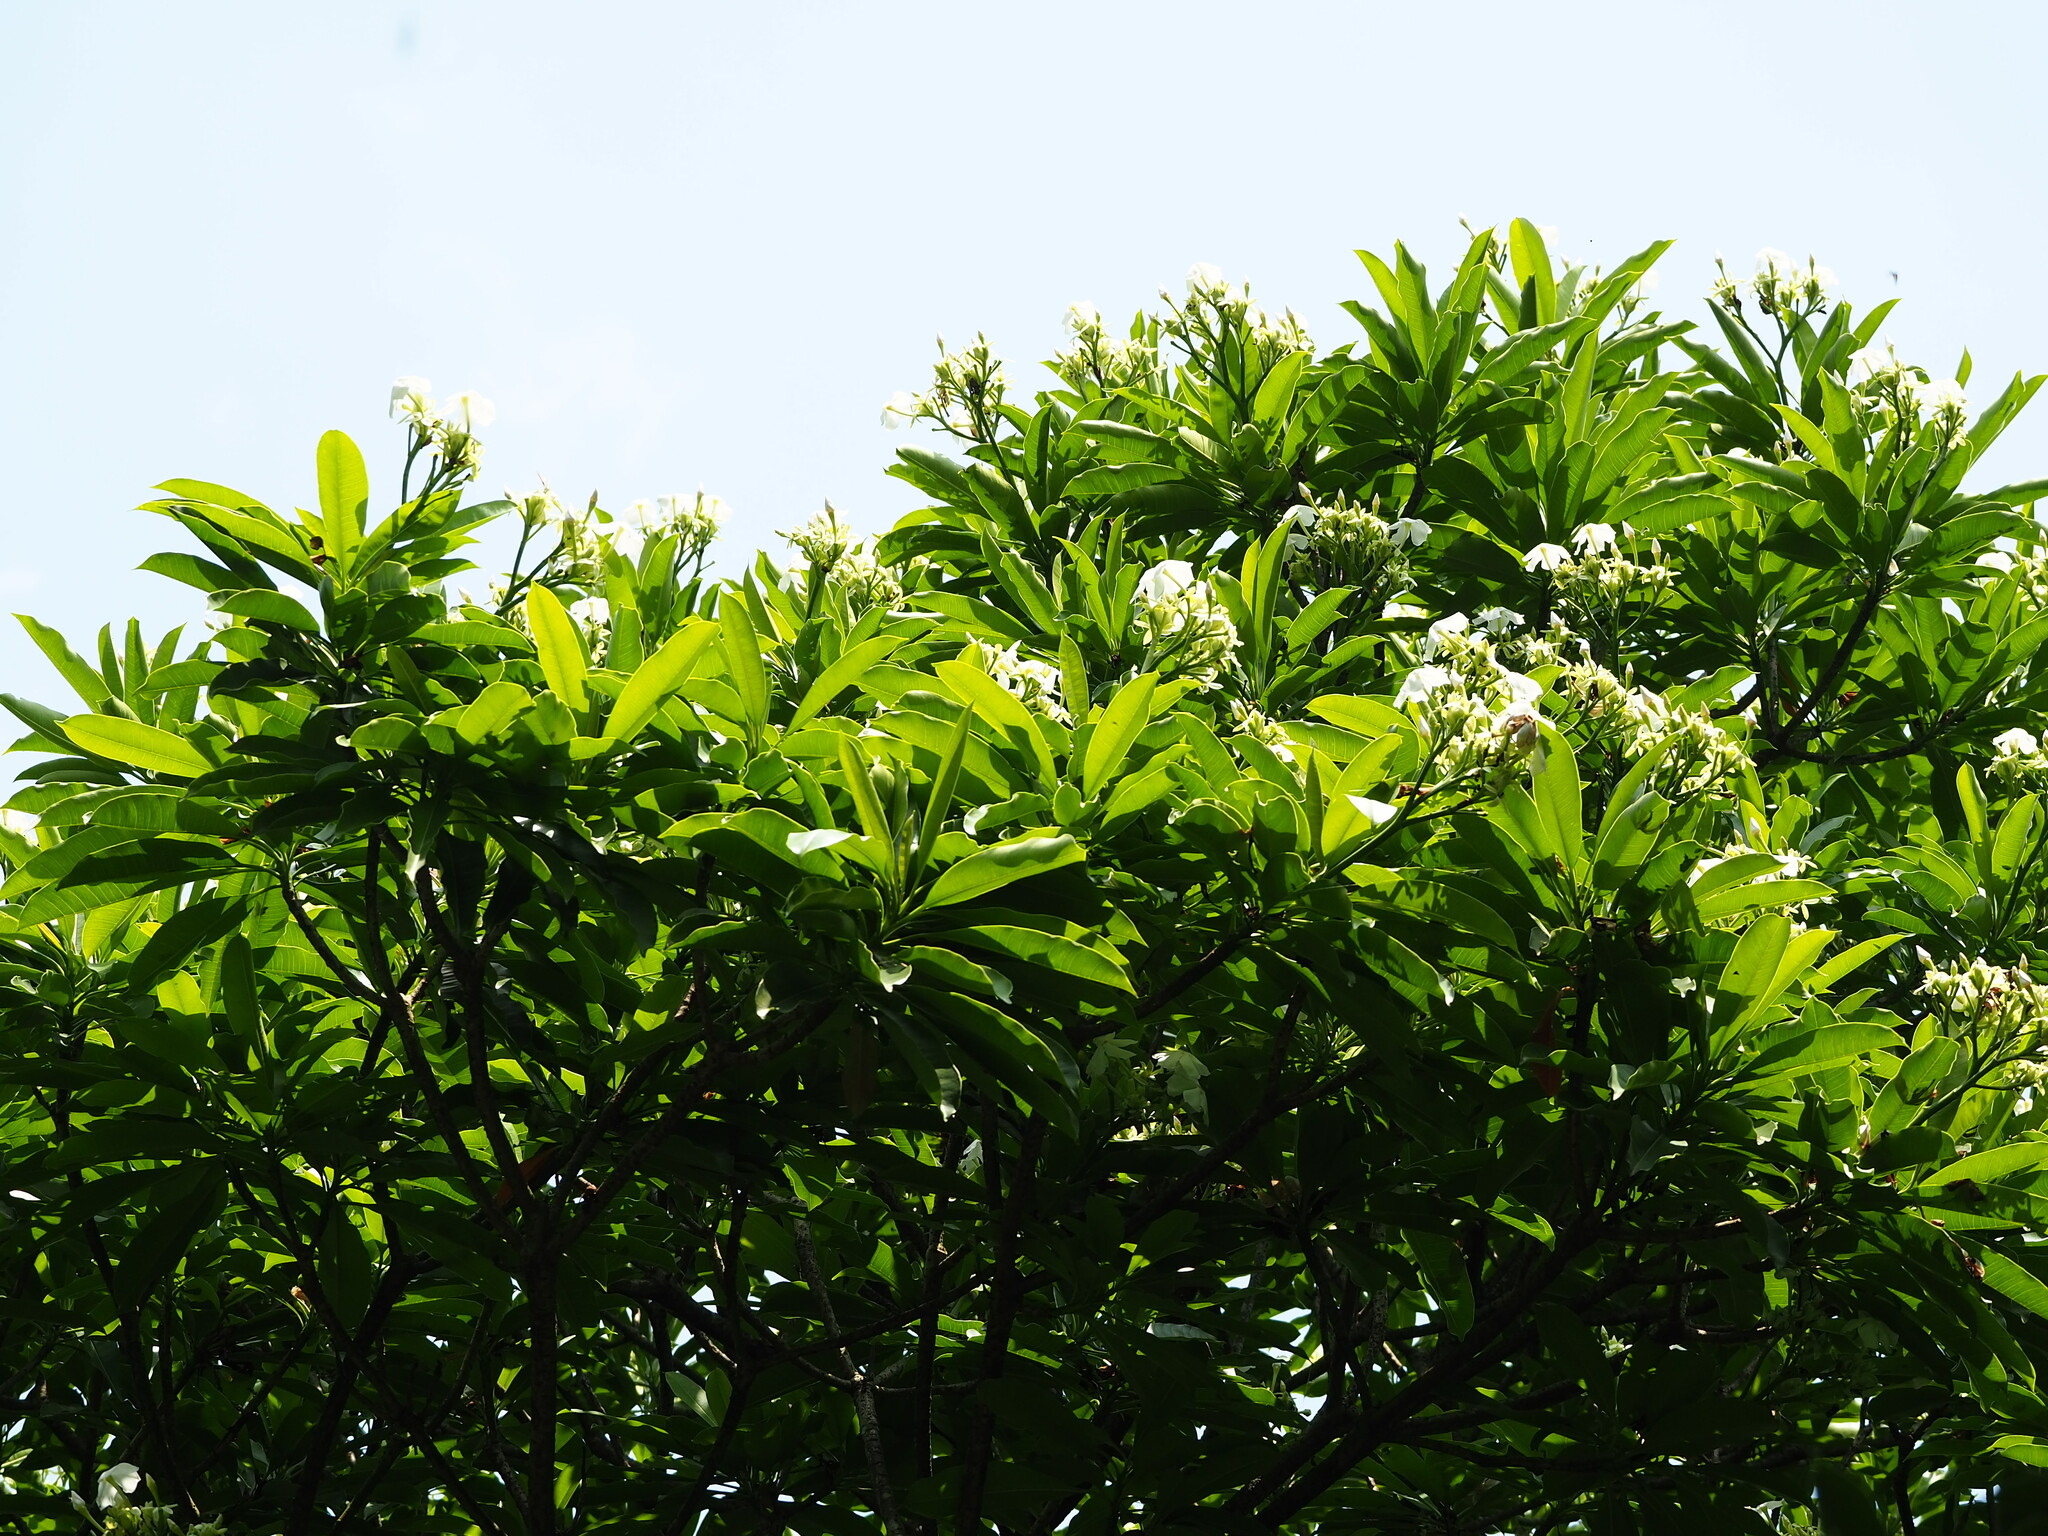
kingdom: Plantae
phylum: Tracheophyta
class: Magnoliopsida
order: Gentianales
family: Apocynaceae
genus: Cerbera
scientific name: Cerbera manghas
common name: Reva
